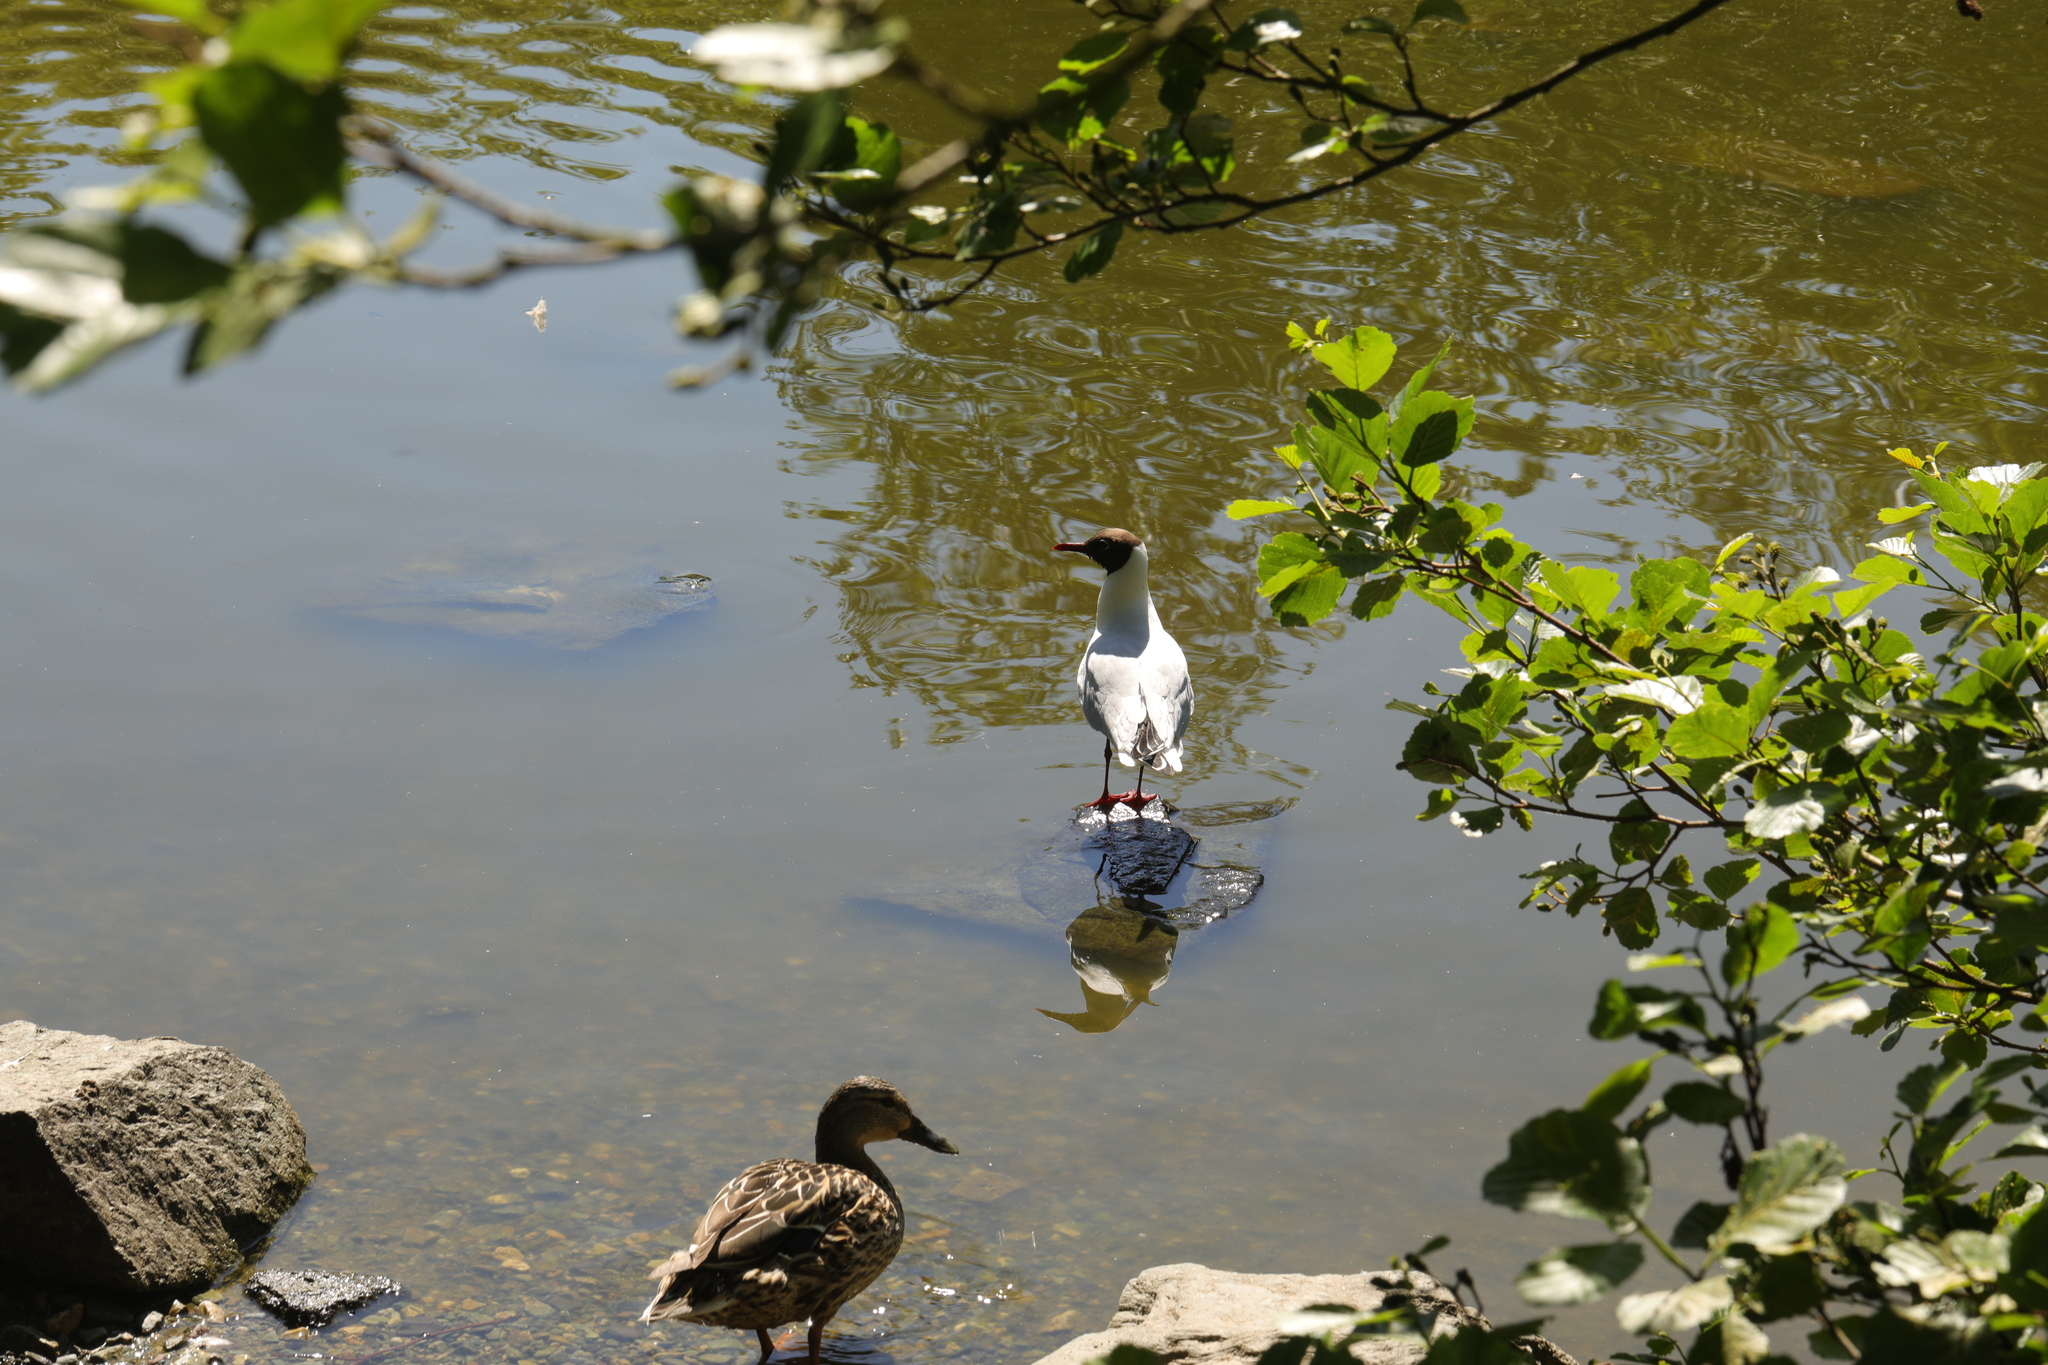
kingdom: Animalia
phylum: Chordata
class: Aves
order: Charadriiformes
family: Laridae
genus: Chroicocephalus
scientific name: Chroicocephalus ridibundus
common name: Black-headed gull
